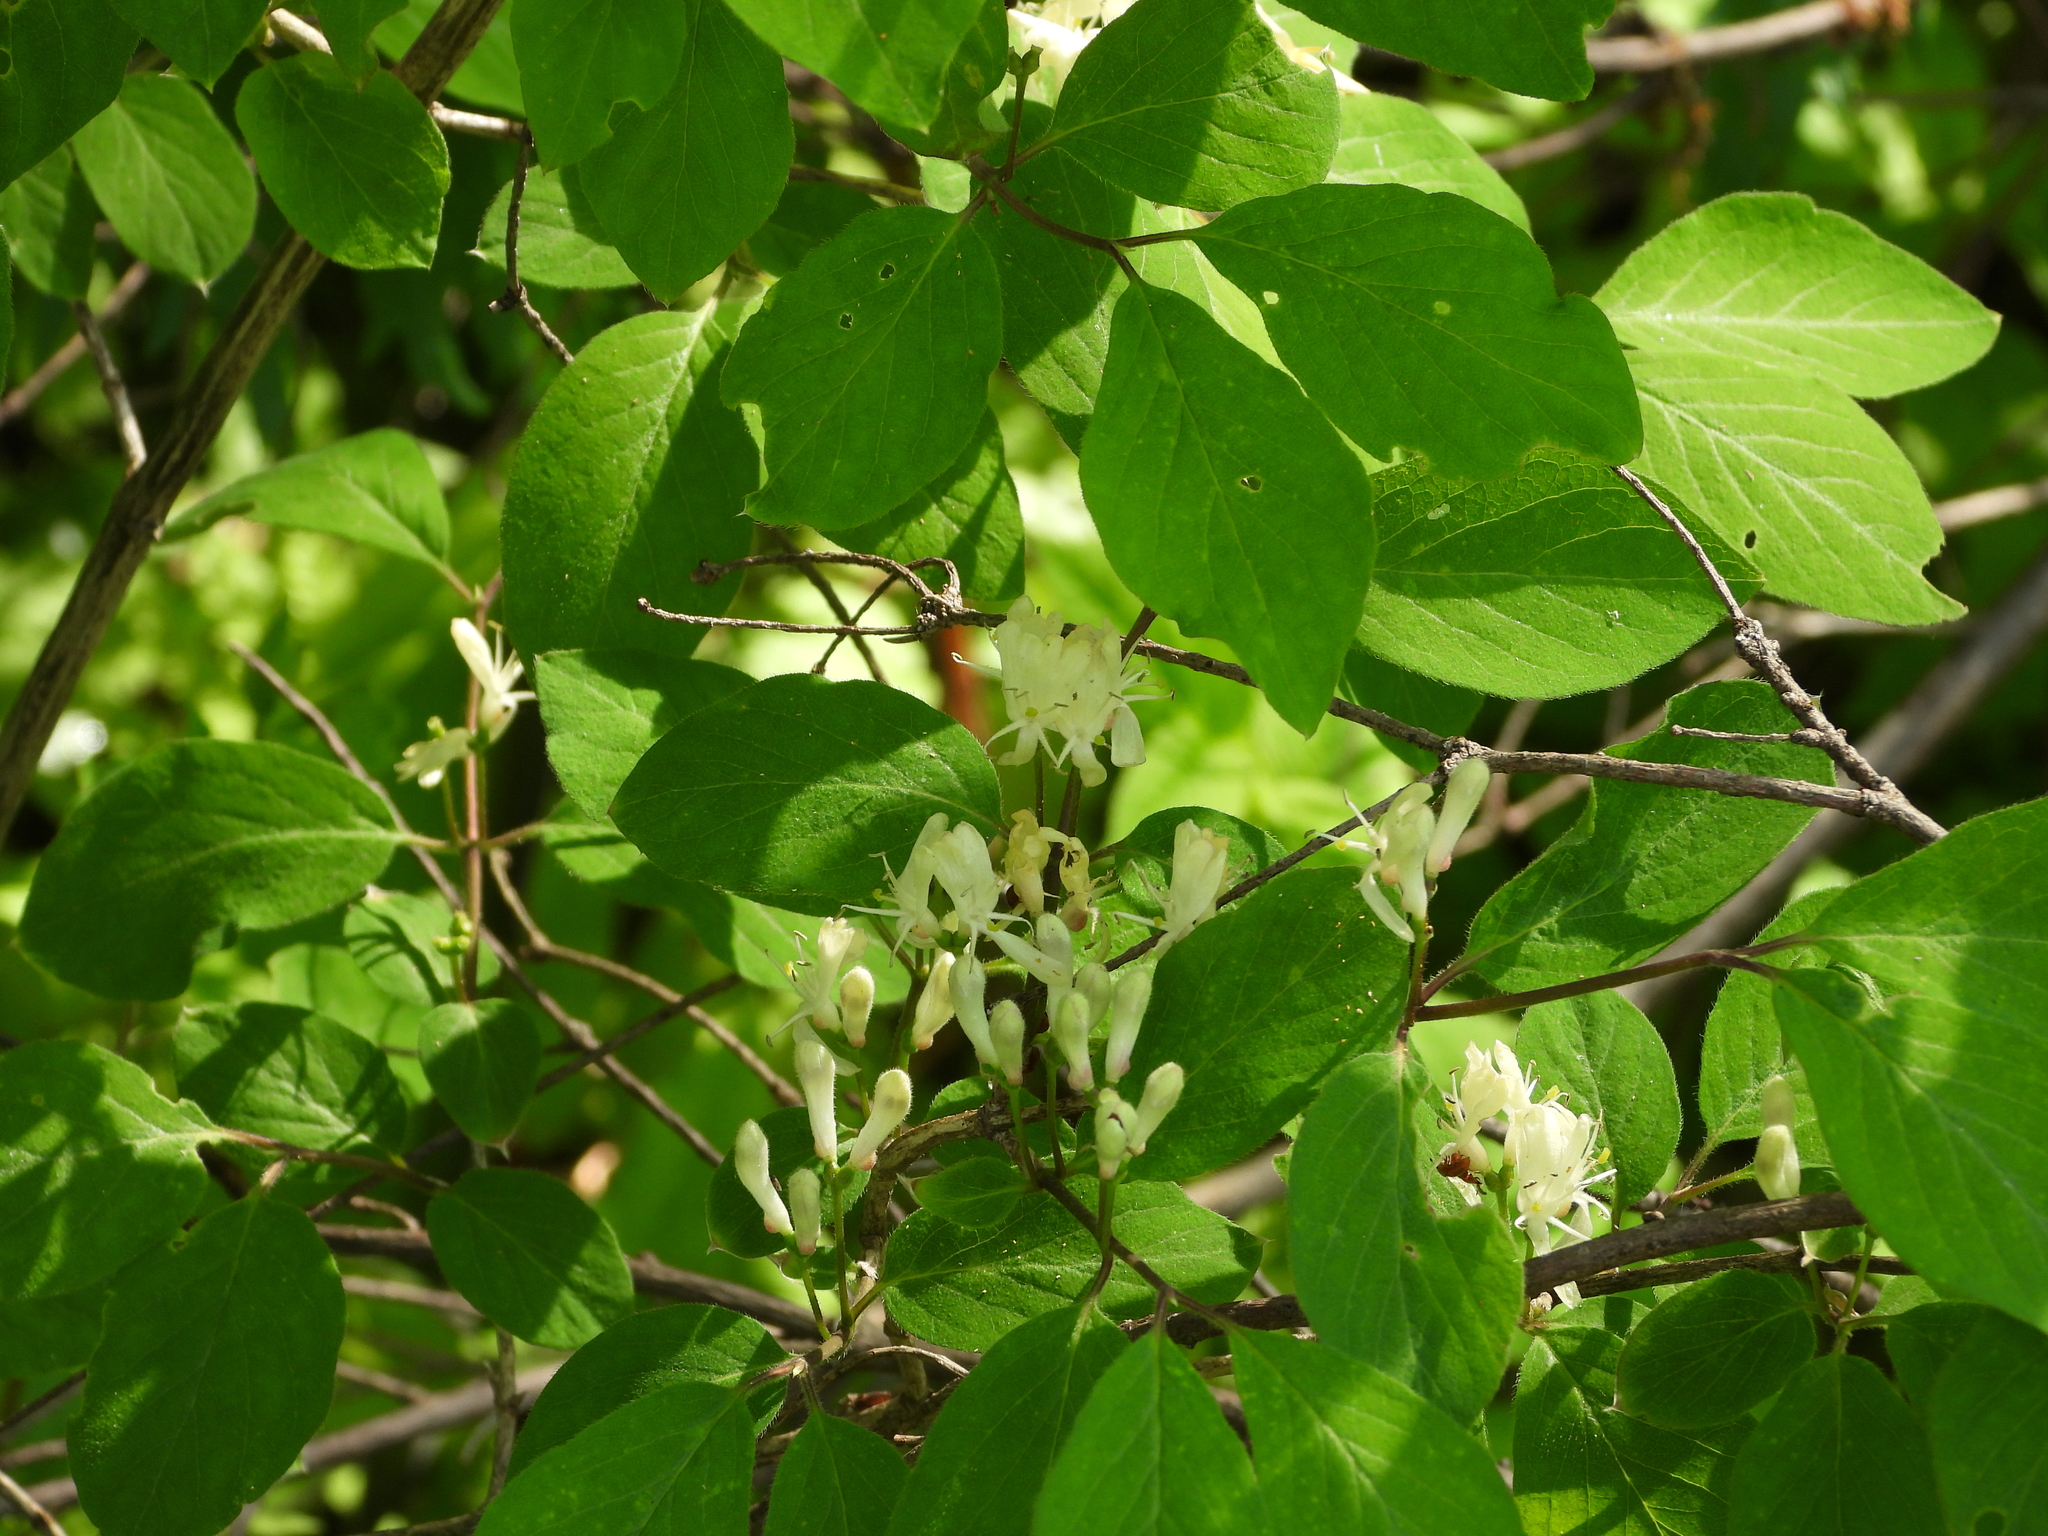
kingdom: Plantae
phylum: Tracheophyta
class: Magnoliopsida
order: Dipsacales
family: Caprifoliaceae
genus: Lonicera
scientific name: Lonicera xylosteum
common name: Fly honeysuckle
